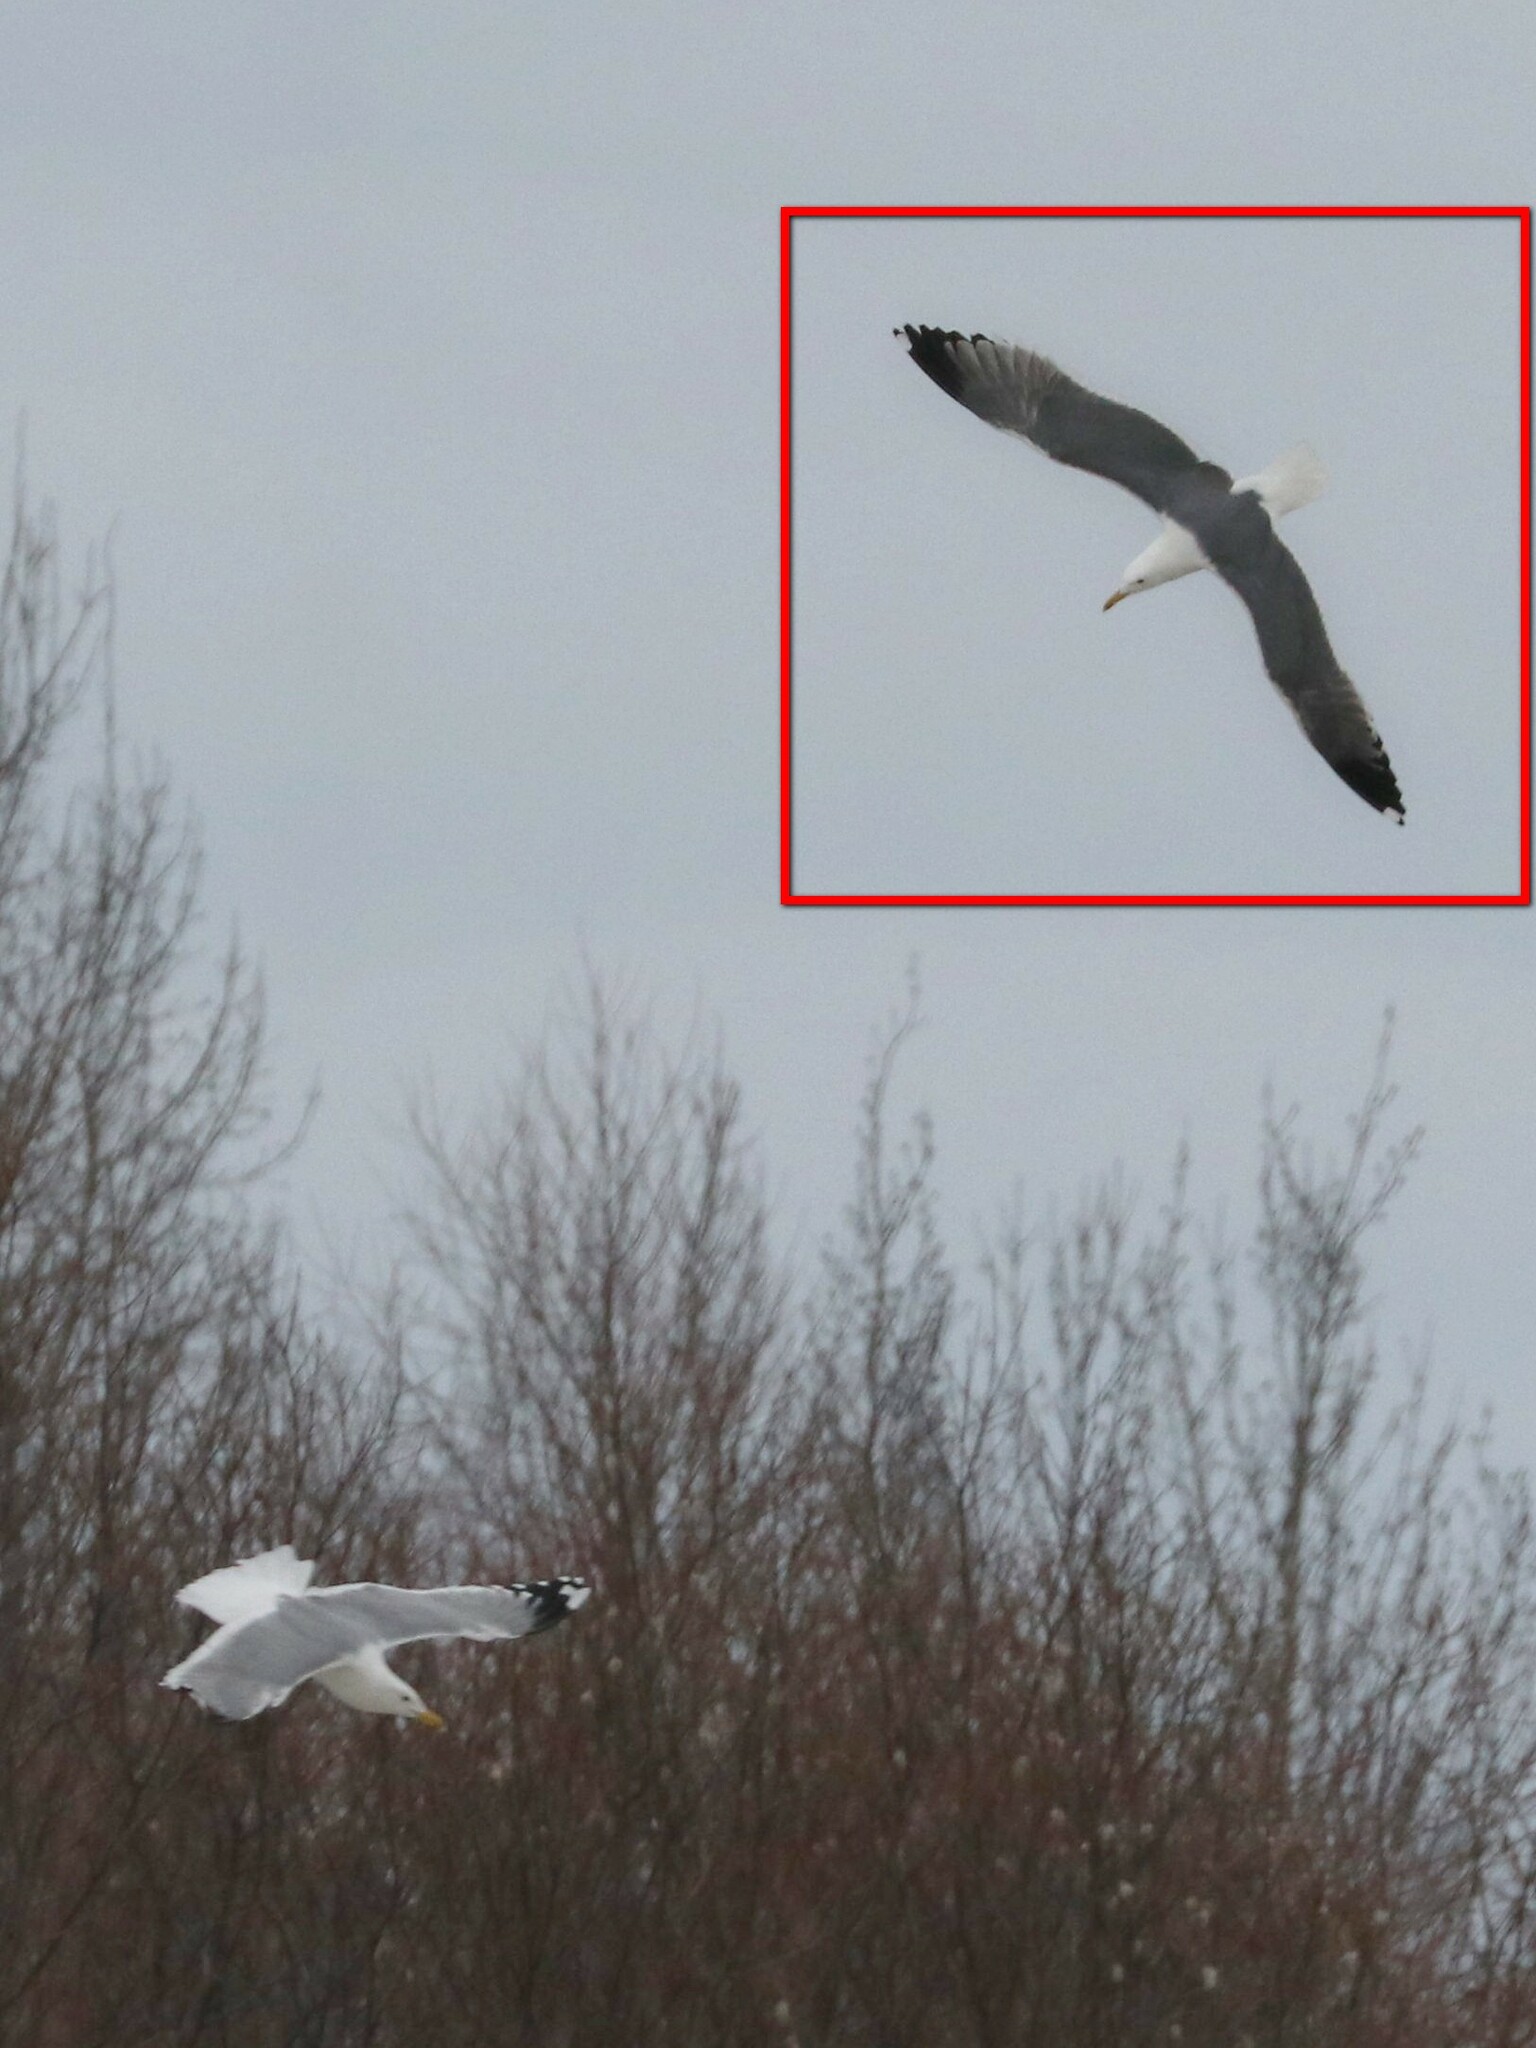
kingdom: Animalia
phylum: Chordata
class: Aves
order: Charadriiformes
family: Laridae
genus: Larus
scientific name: Larus fuscus
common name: Lesser black-backed gull
